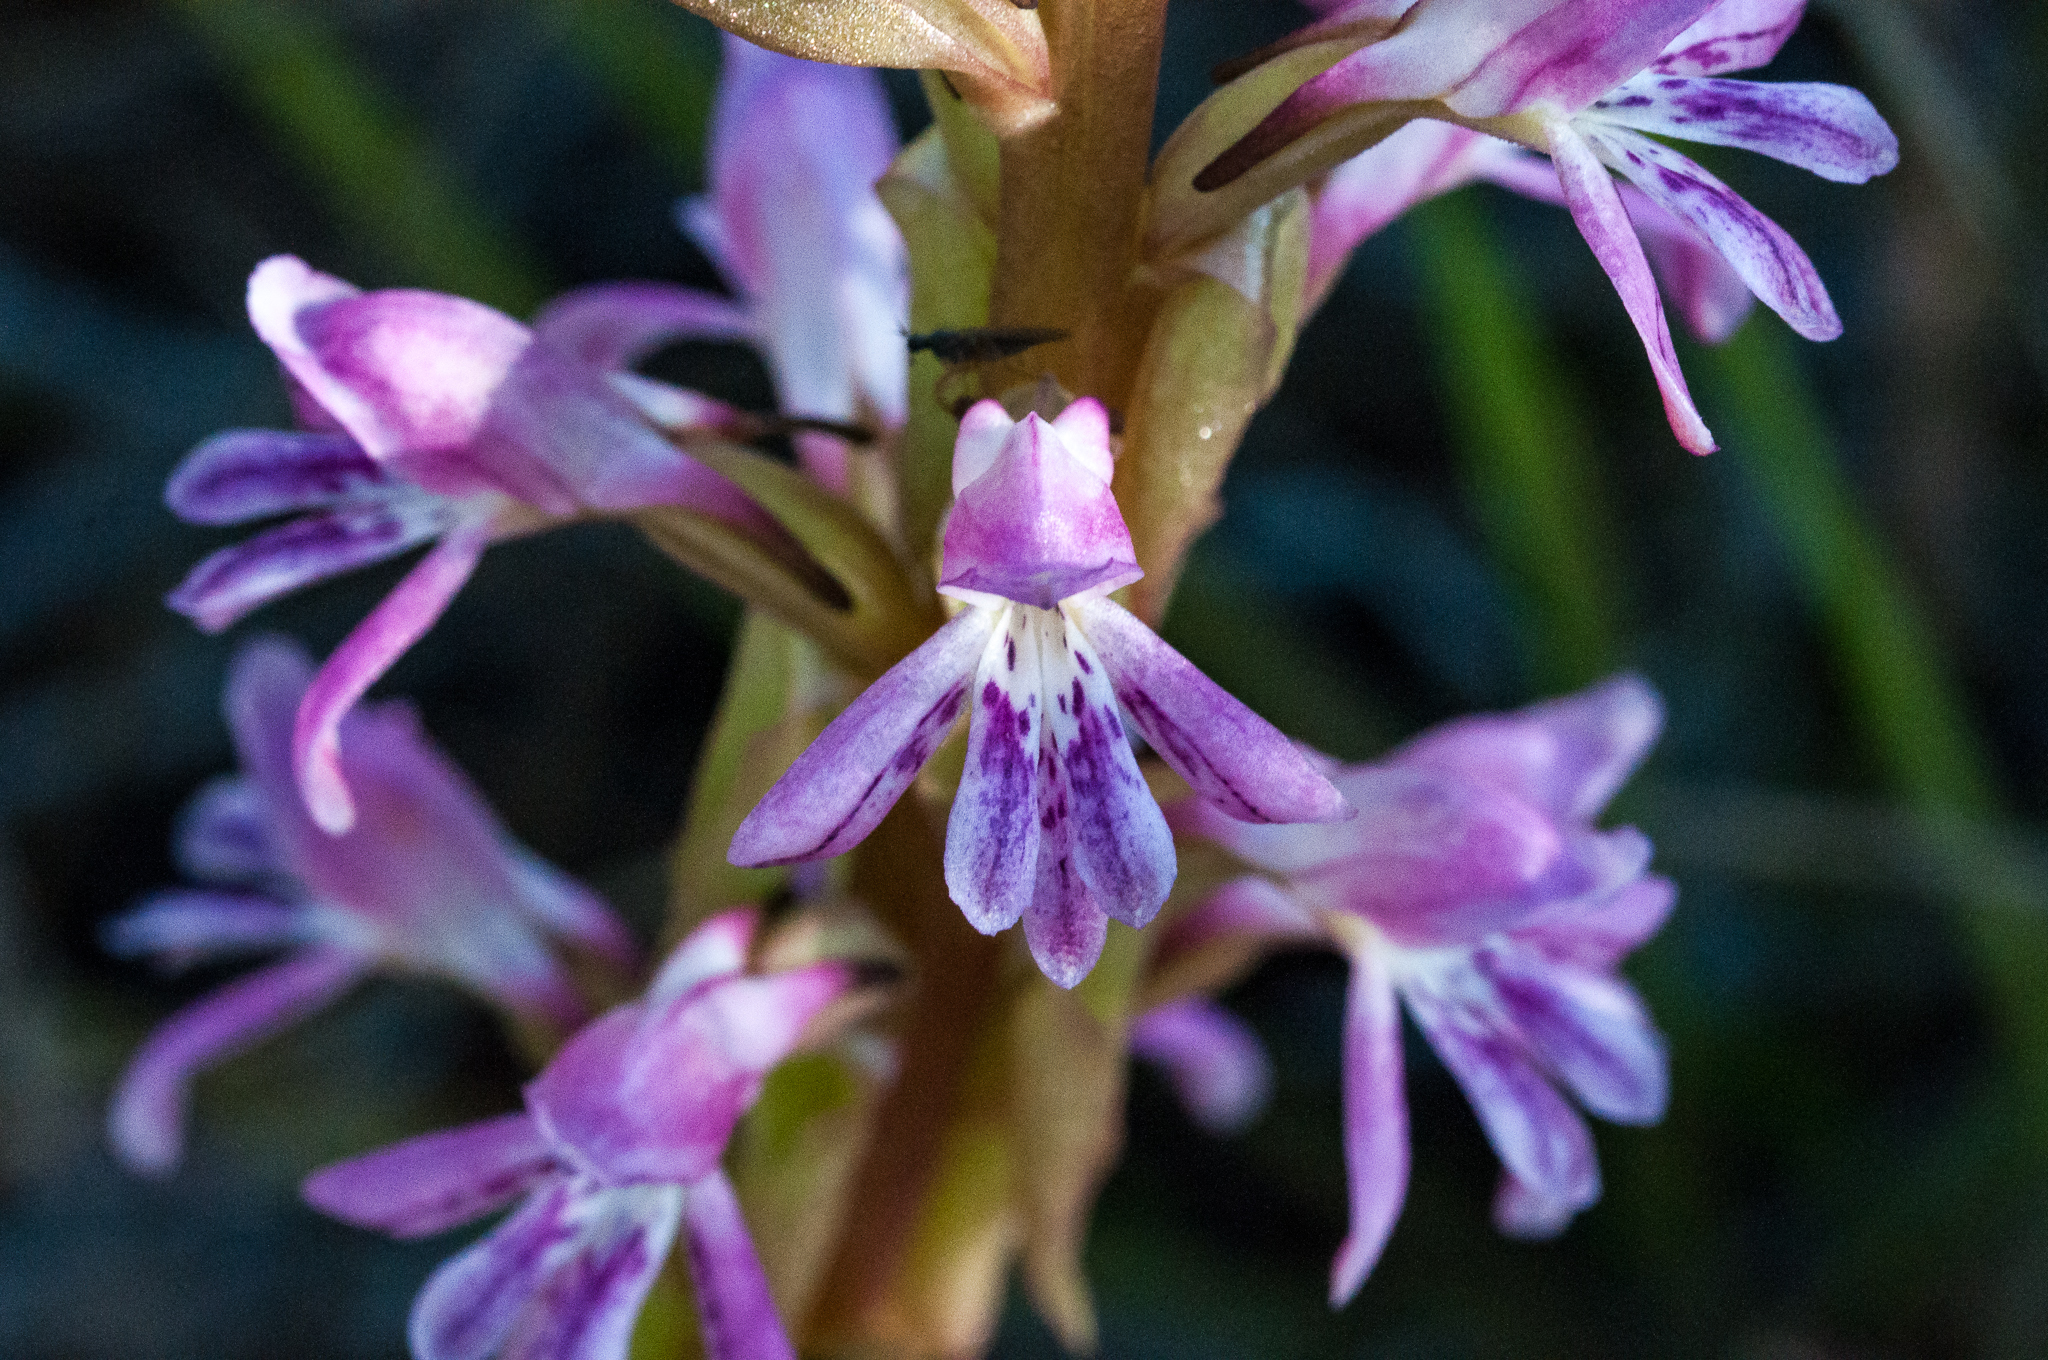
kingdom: Plantae
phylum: Tracheophyta
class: Liliopsida
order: Asparagales
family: Orchidaceae
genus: Satyrium
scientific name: Satyrium erectum
